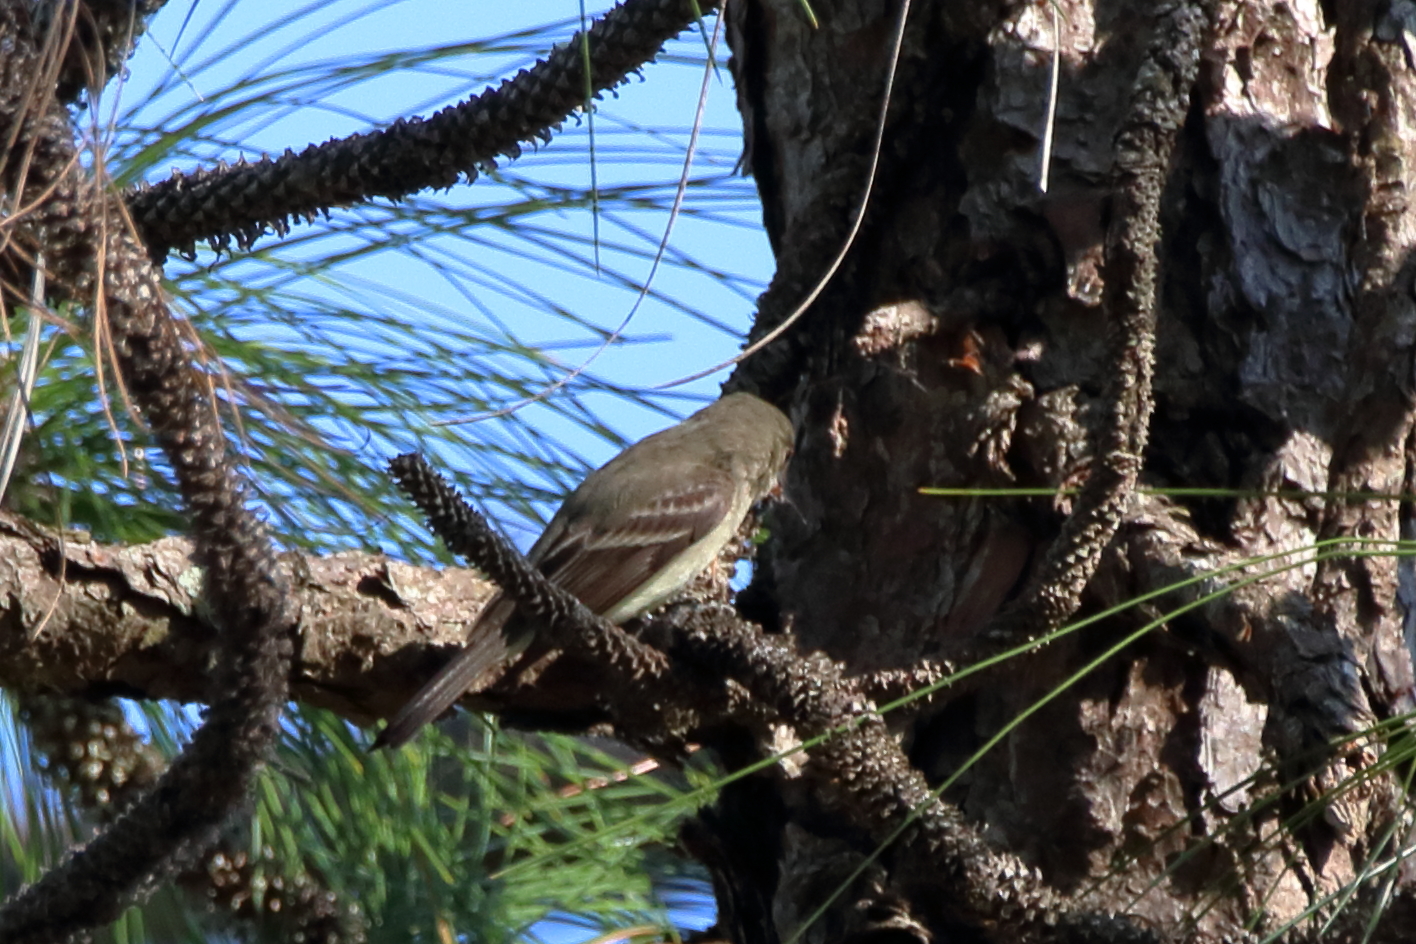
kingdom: Animalia
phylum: Chordata
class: Aves
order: Passeriformes
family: Tyrannidae
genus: Contopus
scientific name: Contopus virens
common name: Eastern wood-pewee
